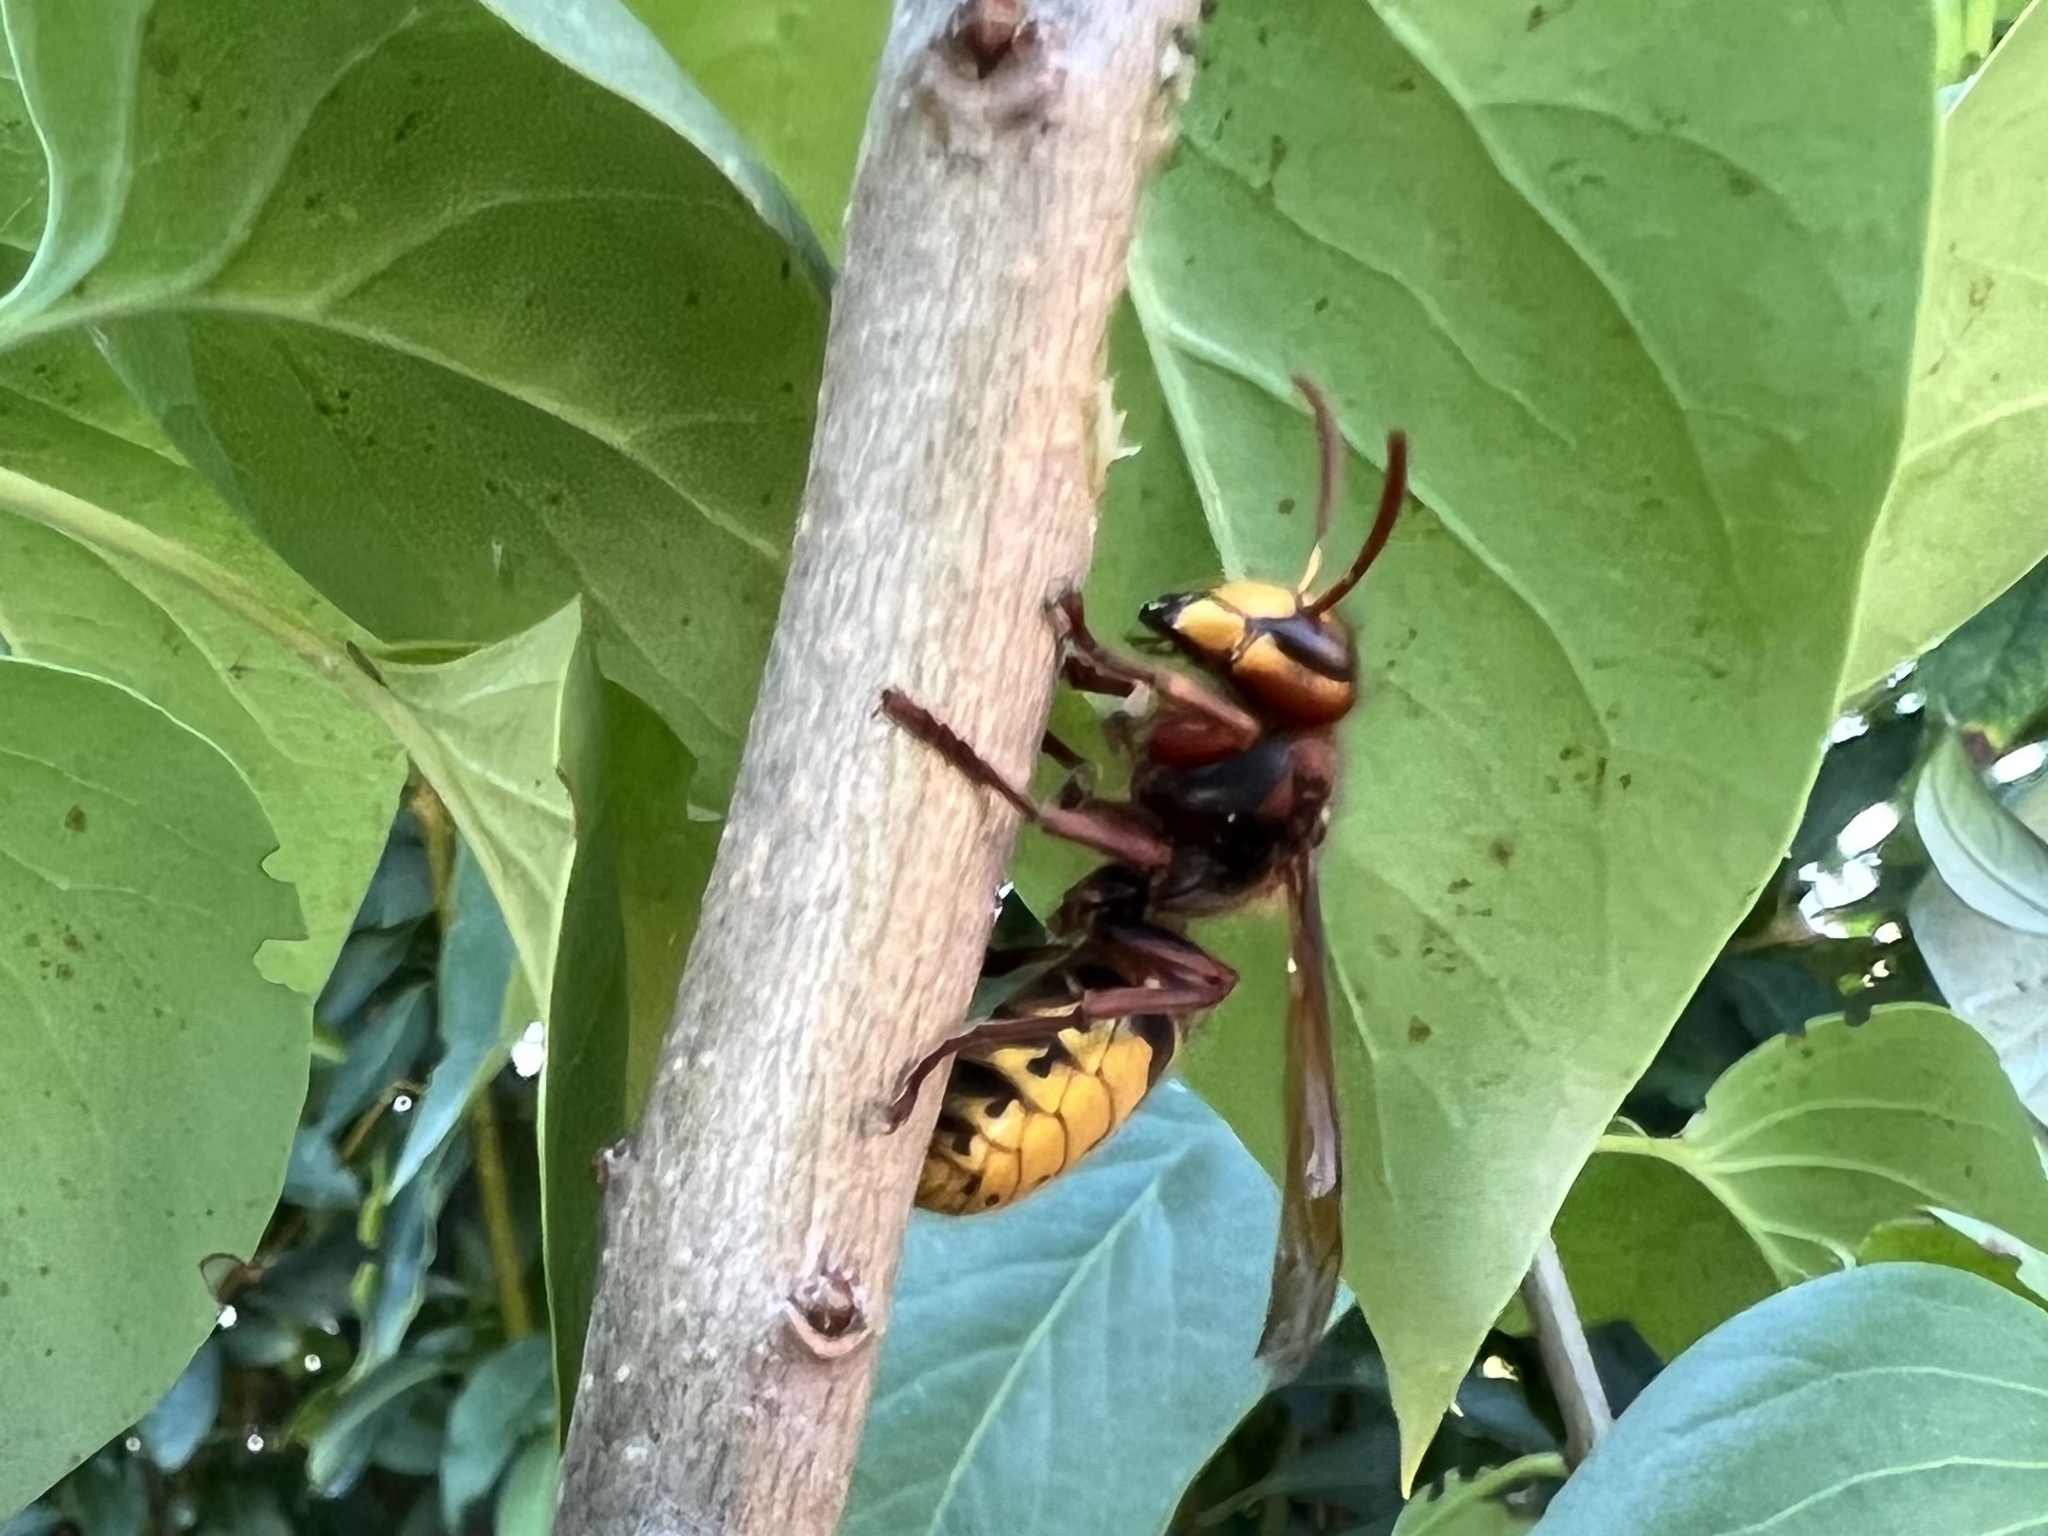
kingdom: Animalia
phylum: Arthropoda
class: Insecta
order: Hymenoptera
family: Vespidae
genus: Vespa
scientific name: Vespa crabro
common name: Hornet
